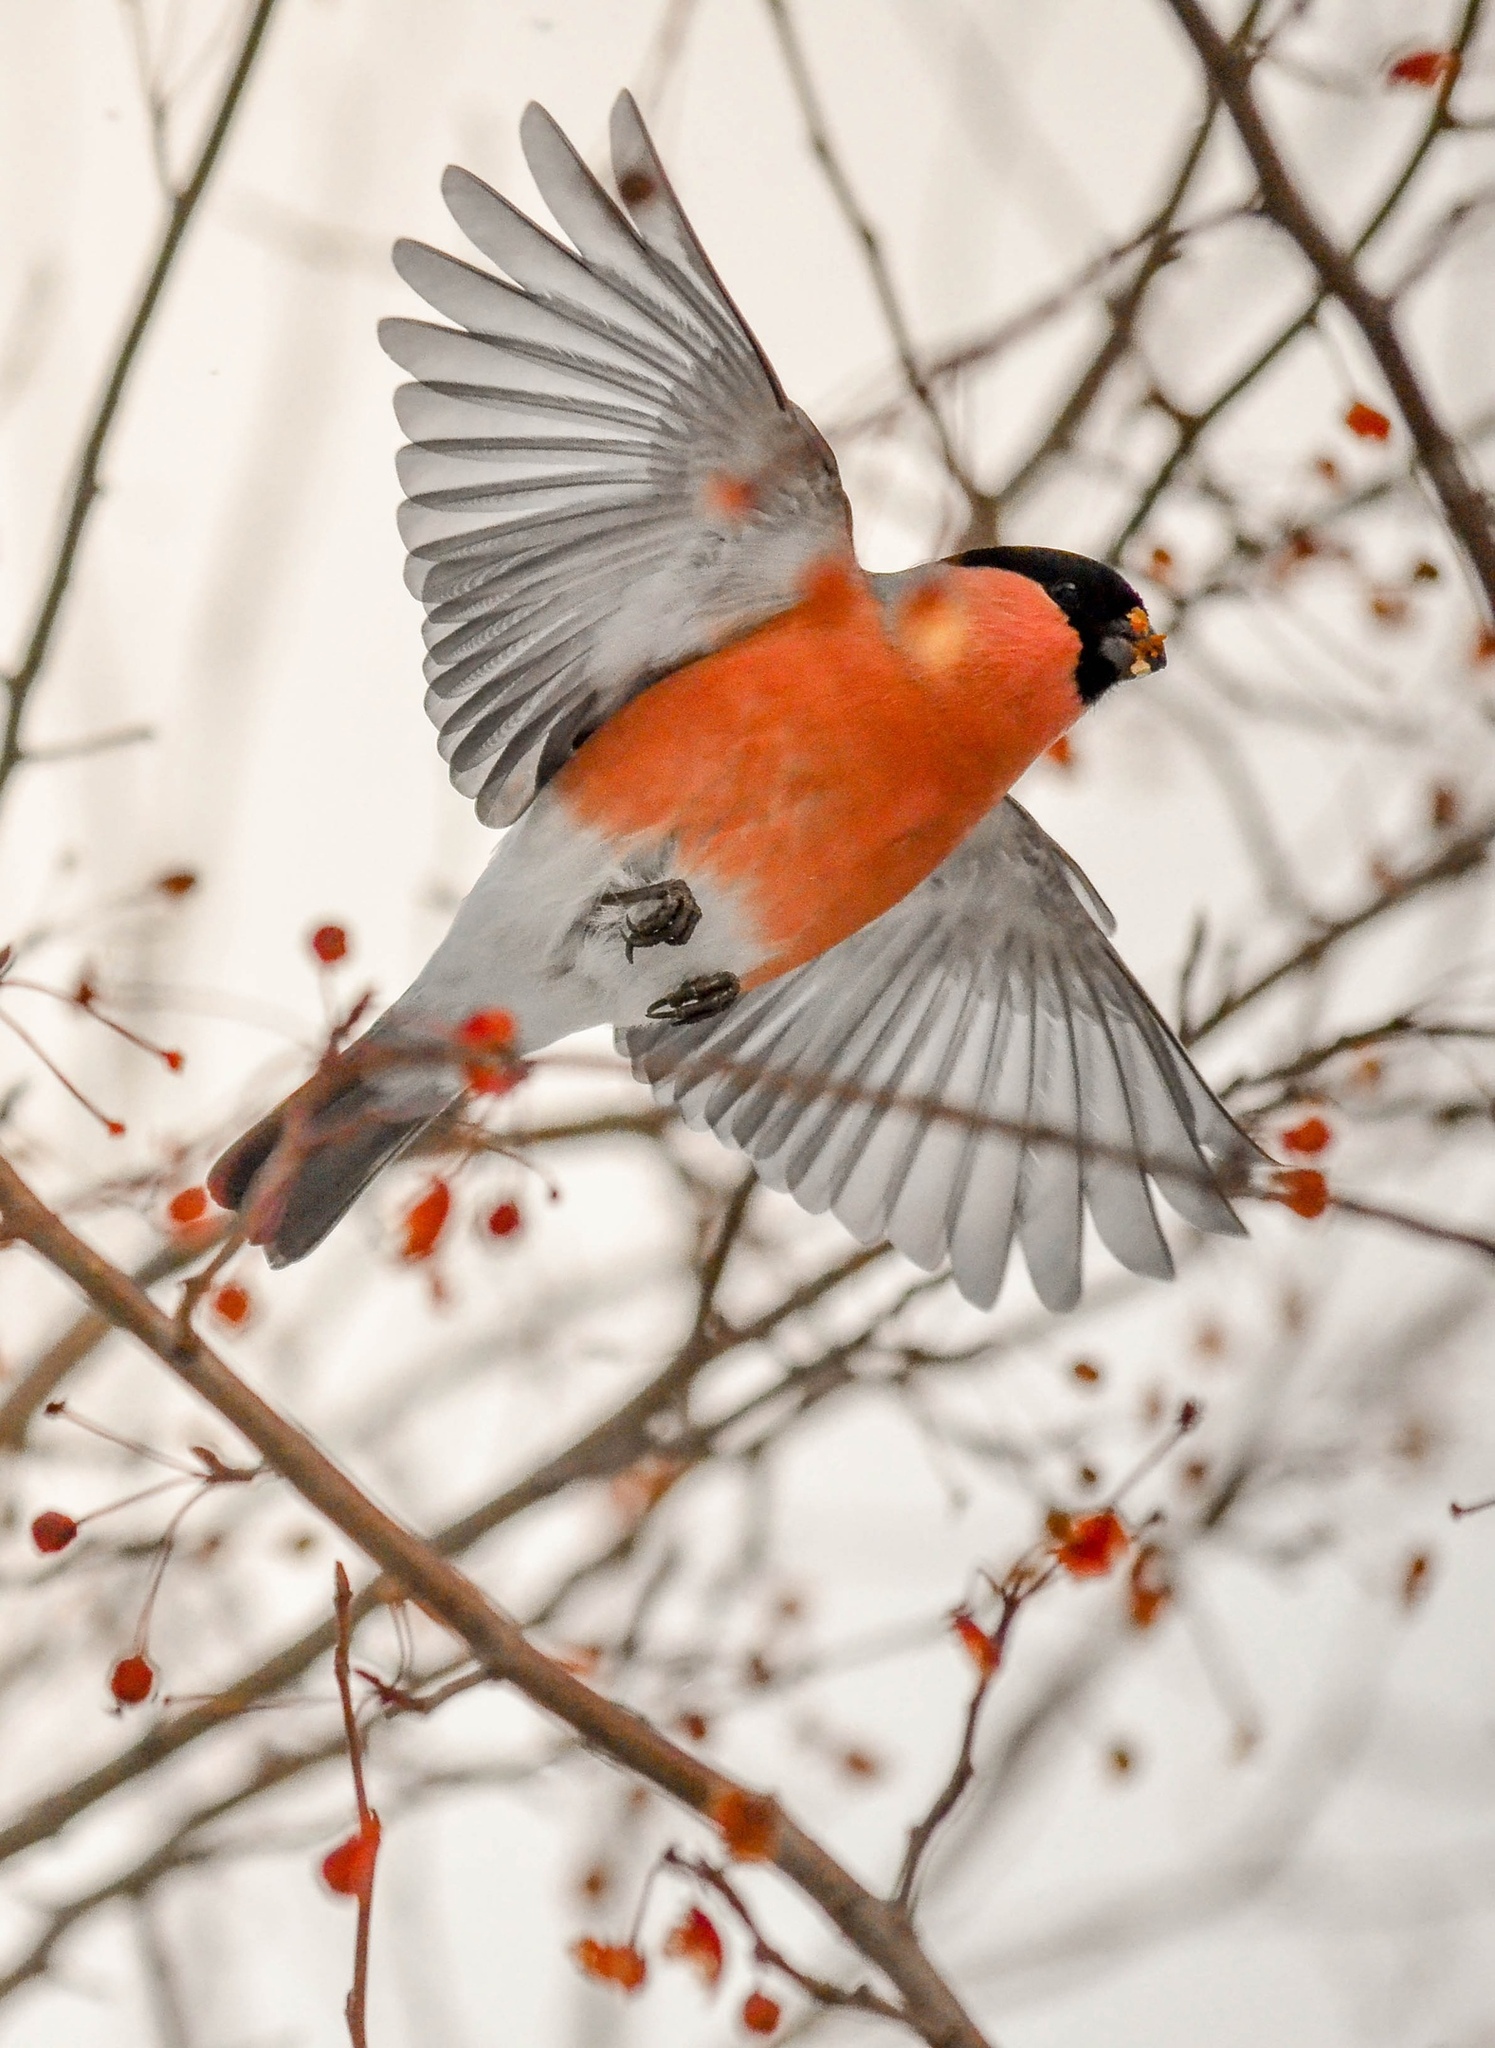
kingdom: Animalia
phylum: Chordata
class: Aves
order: Passeriformes
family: Fringillidae
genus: Pyrrhula
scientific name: Pyrrhula pyrrhula
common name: Eurasian bullfinch
